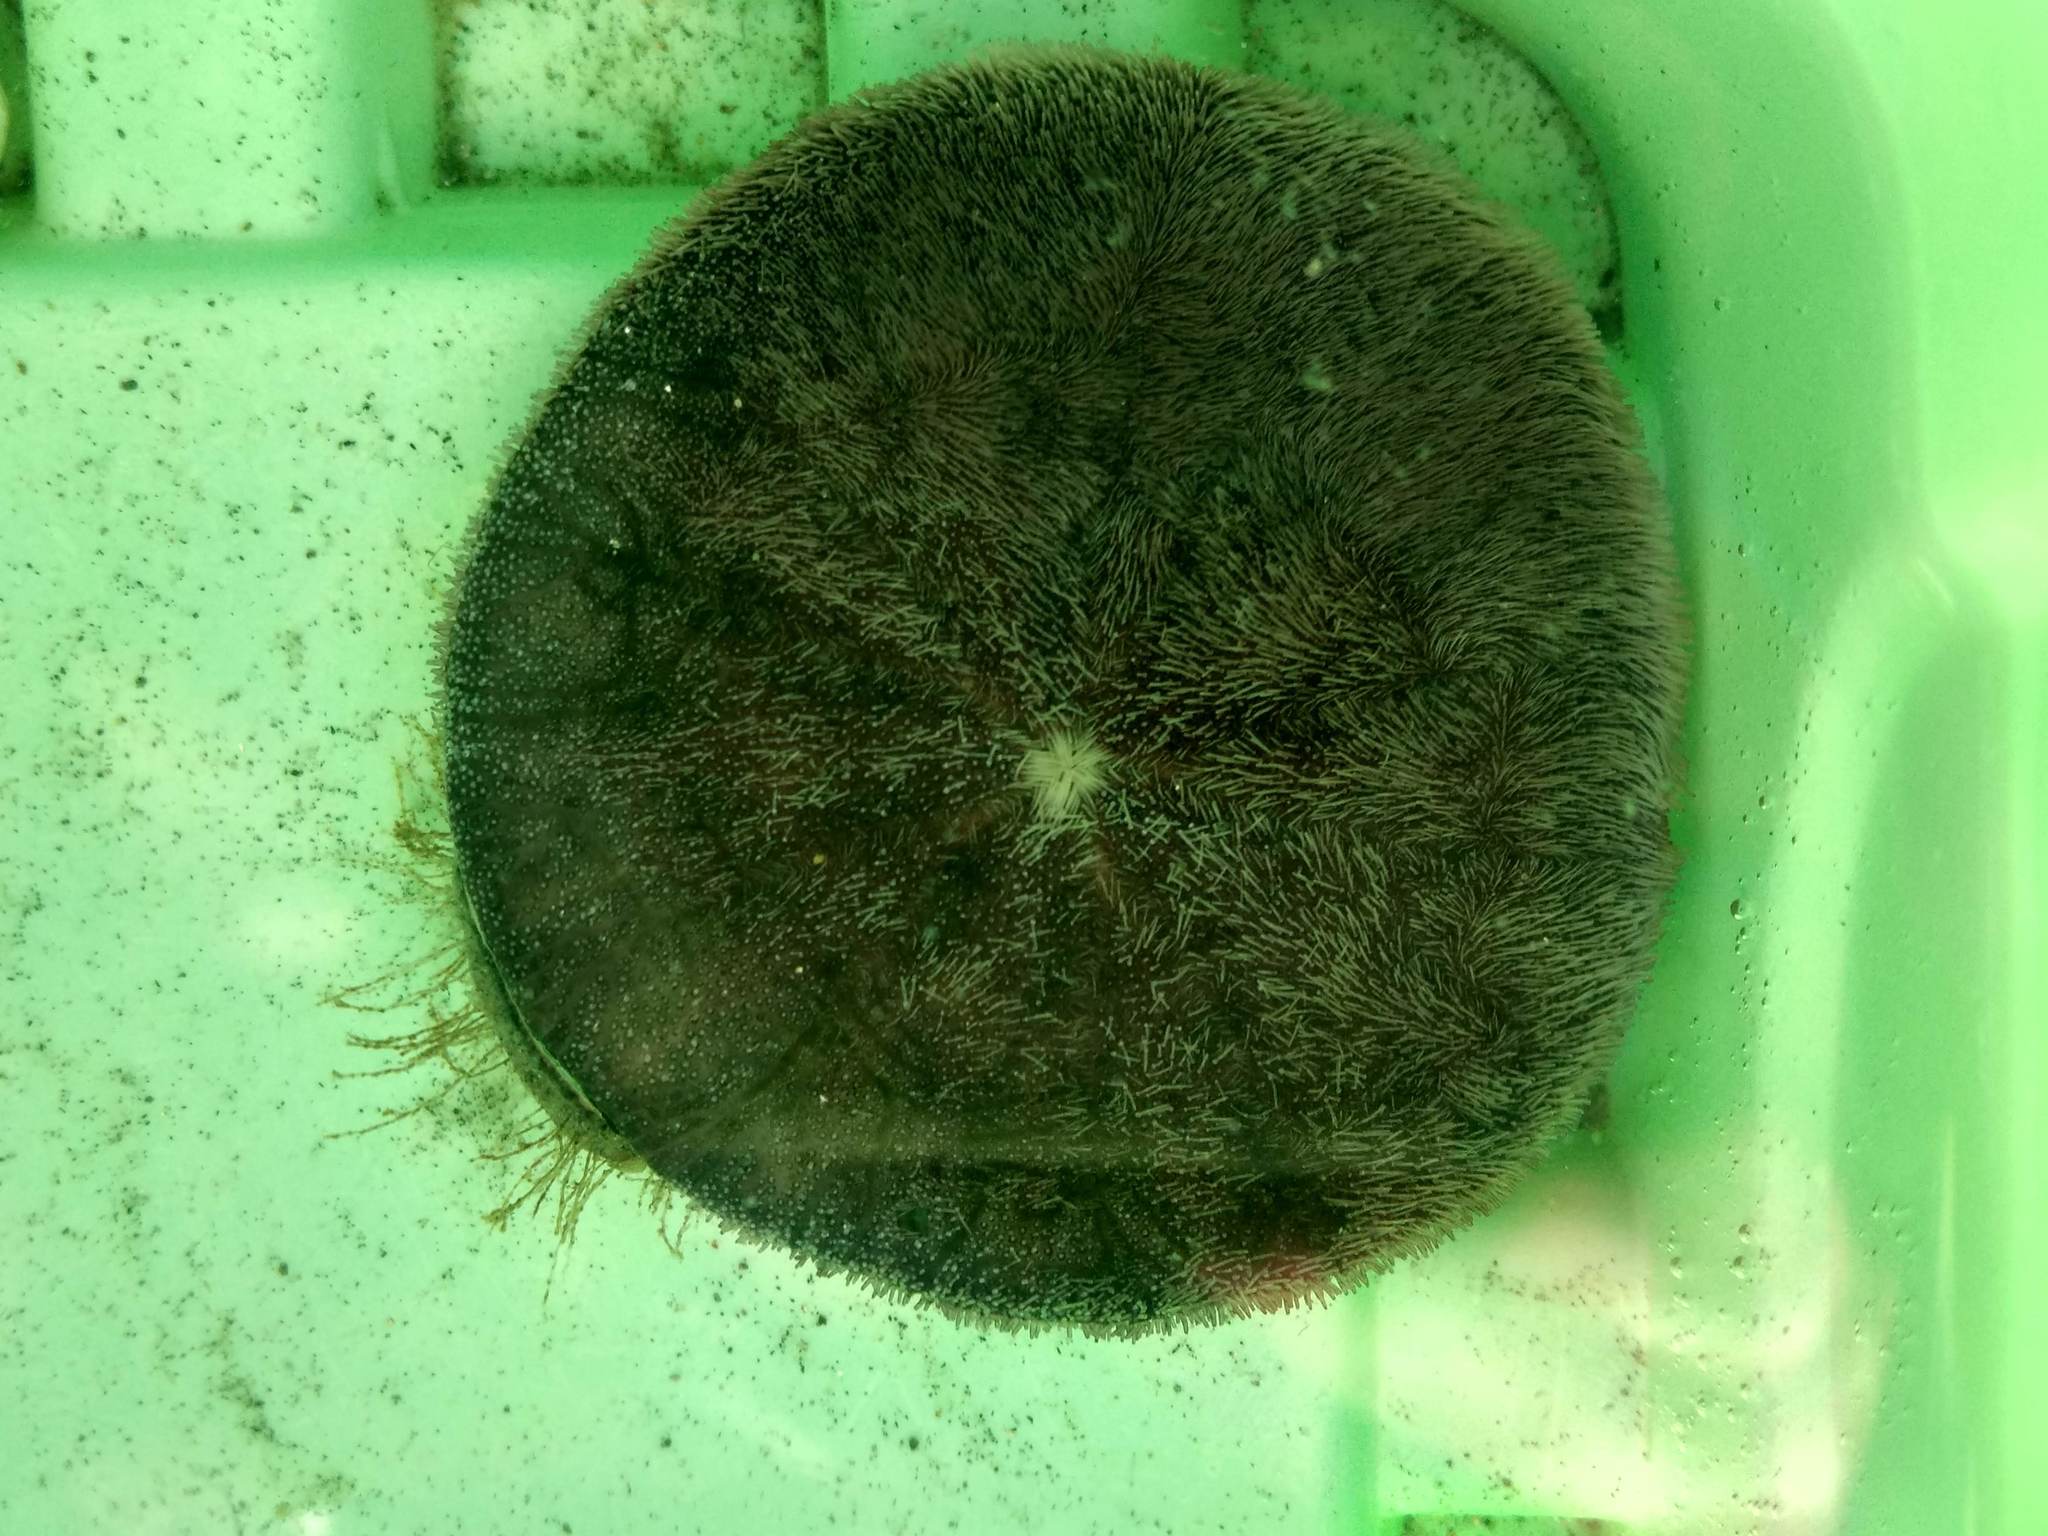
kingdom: Animalia
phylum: Echinodermata
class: Echinoidea
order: Echinolampadacea
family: Dendrasteridae
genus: Dendraster
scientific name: Dendraster excentricus
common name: Eccentric sand dollar sea urchin
